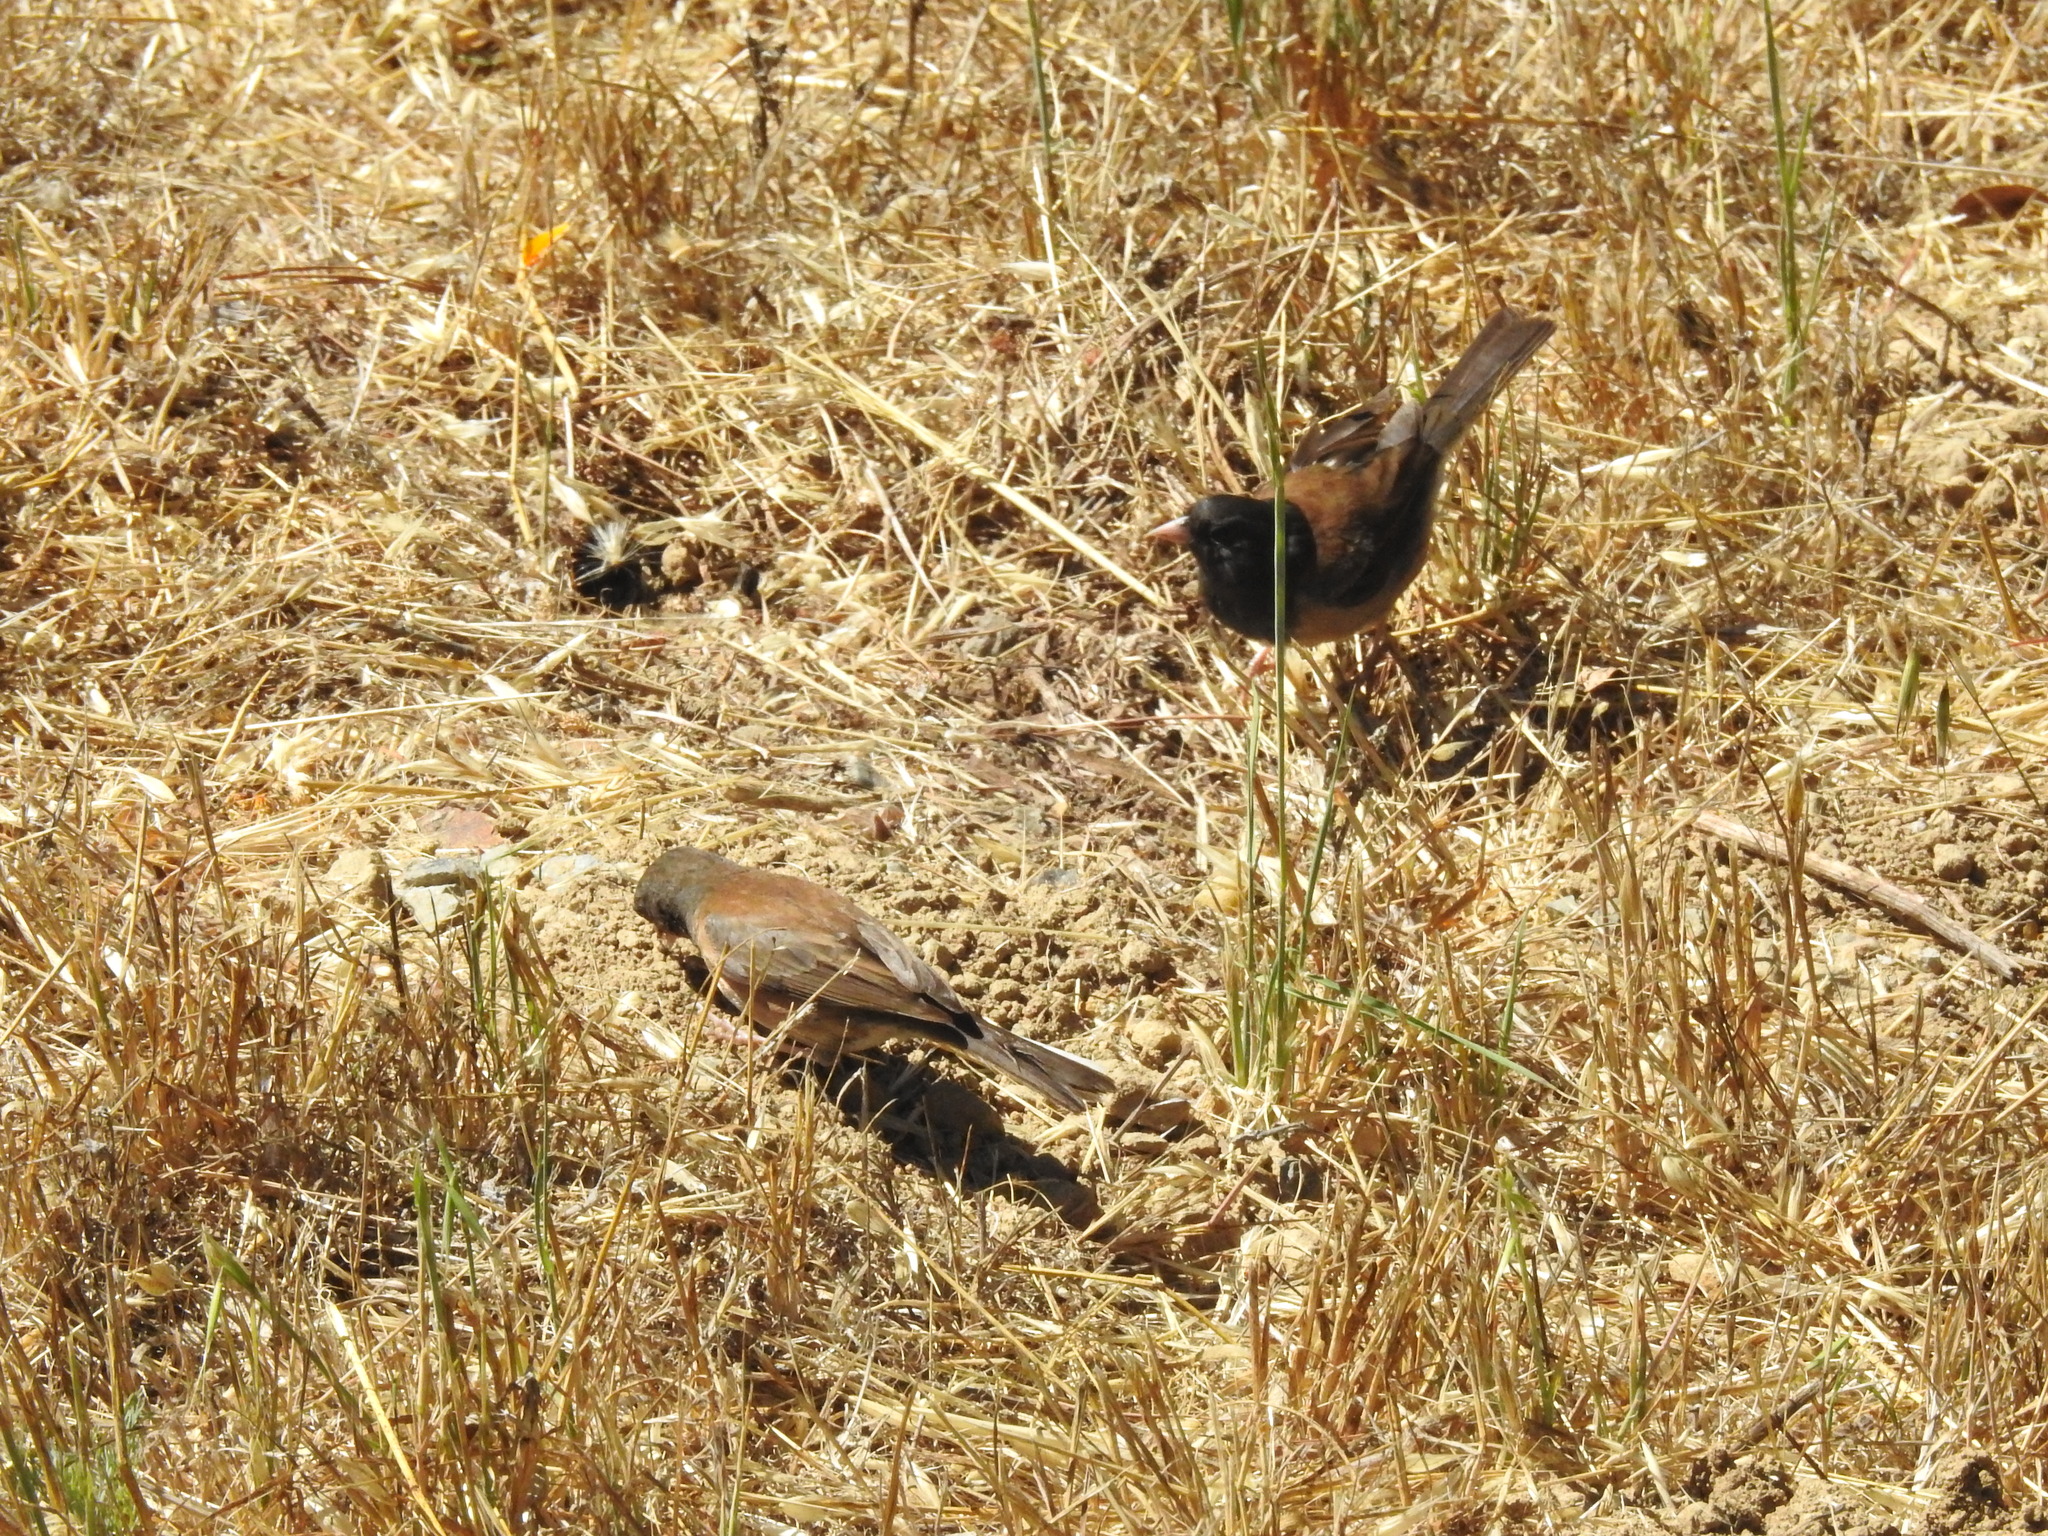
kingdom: Animalia
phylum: Chordata
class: Aves
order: Passeriformes
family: Passerellidae
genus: Junco
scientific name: Junco hyemalis
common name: Dark-eyed junco
